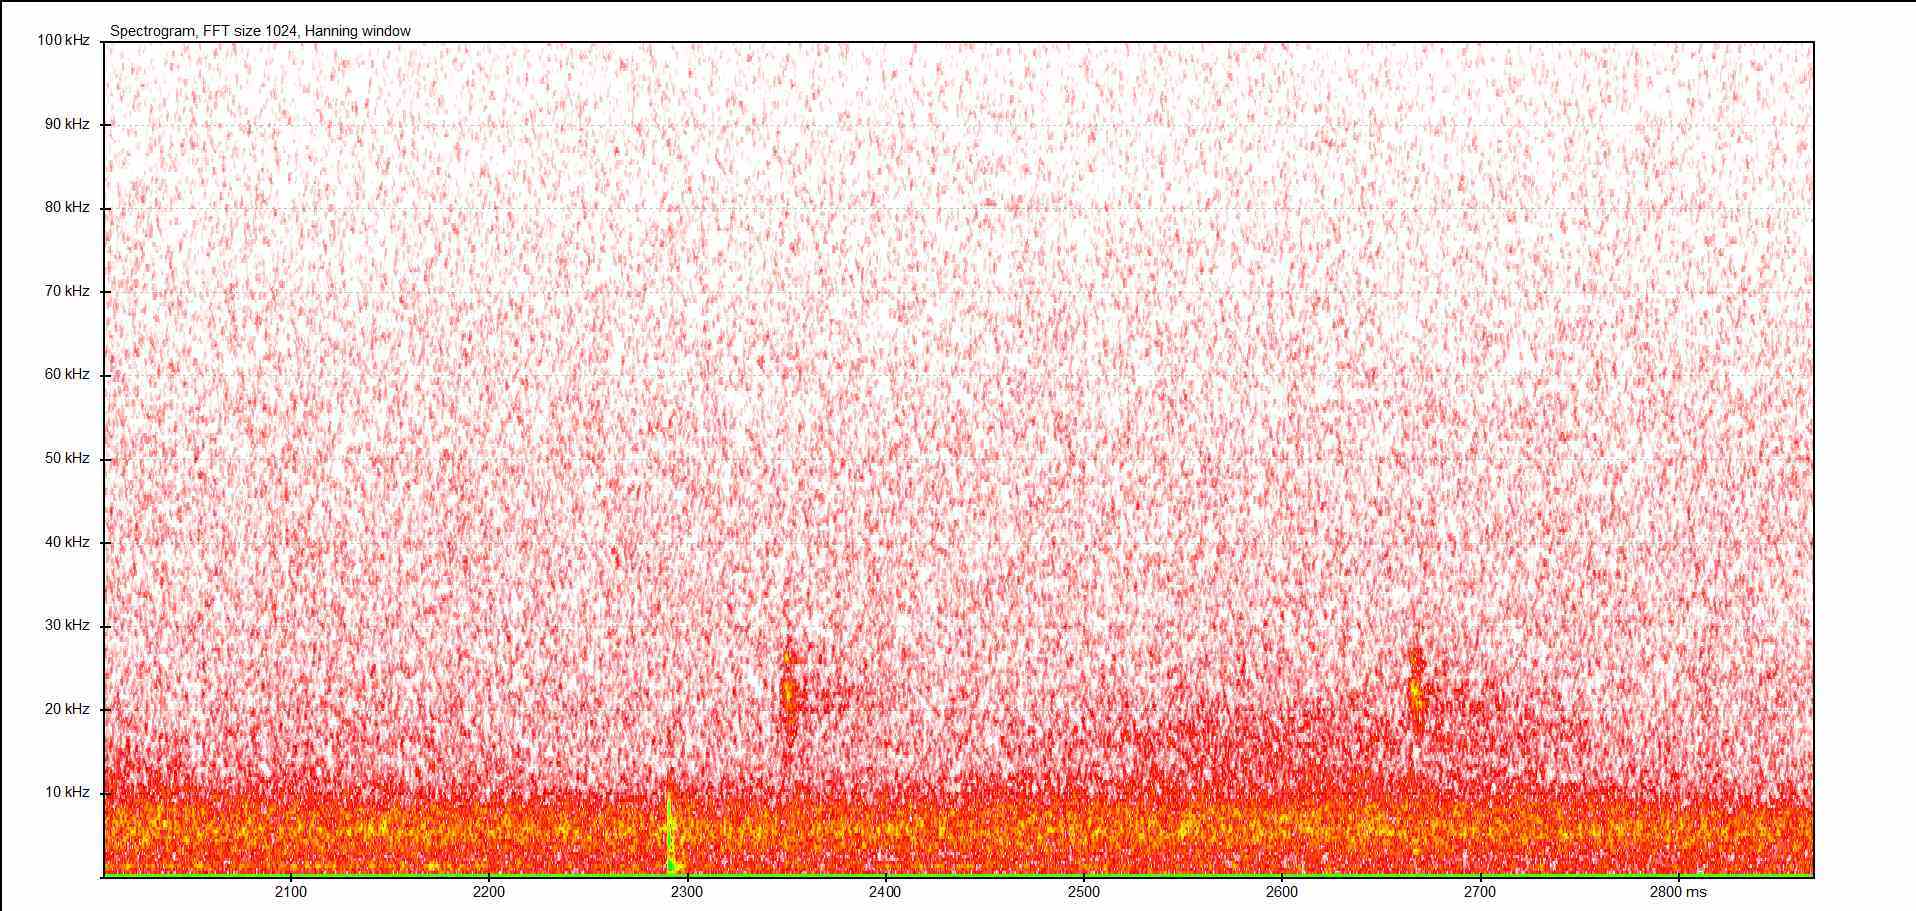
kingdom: Animalia
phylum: Arthropoda
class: Insecta
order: Orthoptera
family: Tettigoniidae
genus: Barbitistes
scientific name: Barbitistes serricauda
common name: Saw-tailed bush-cricket
